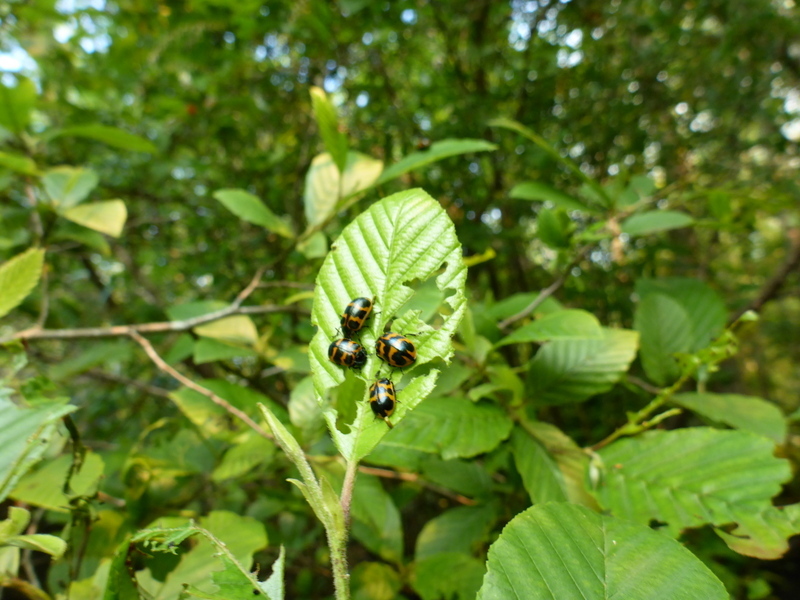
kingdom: Animalia
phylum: Arthropoda
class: Insecta
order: Coleoptera
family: Chrysomelidae
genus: Chrysomela
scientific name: Chrysomela interrupta
